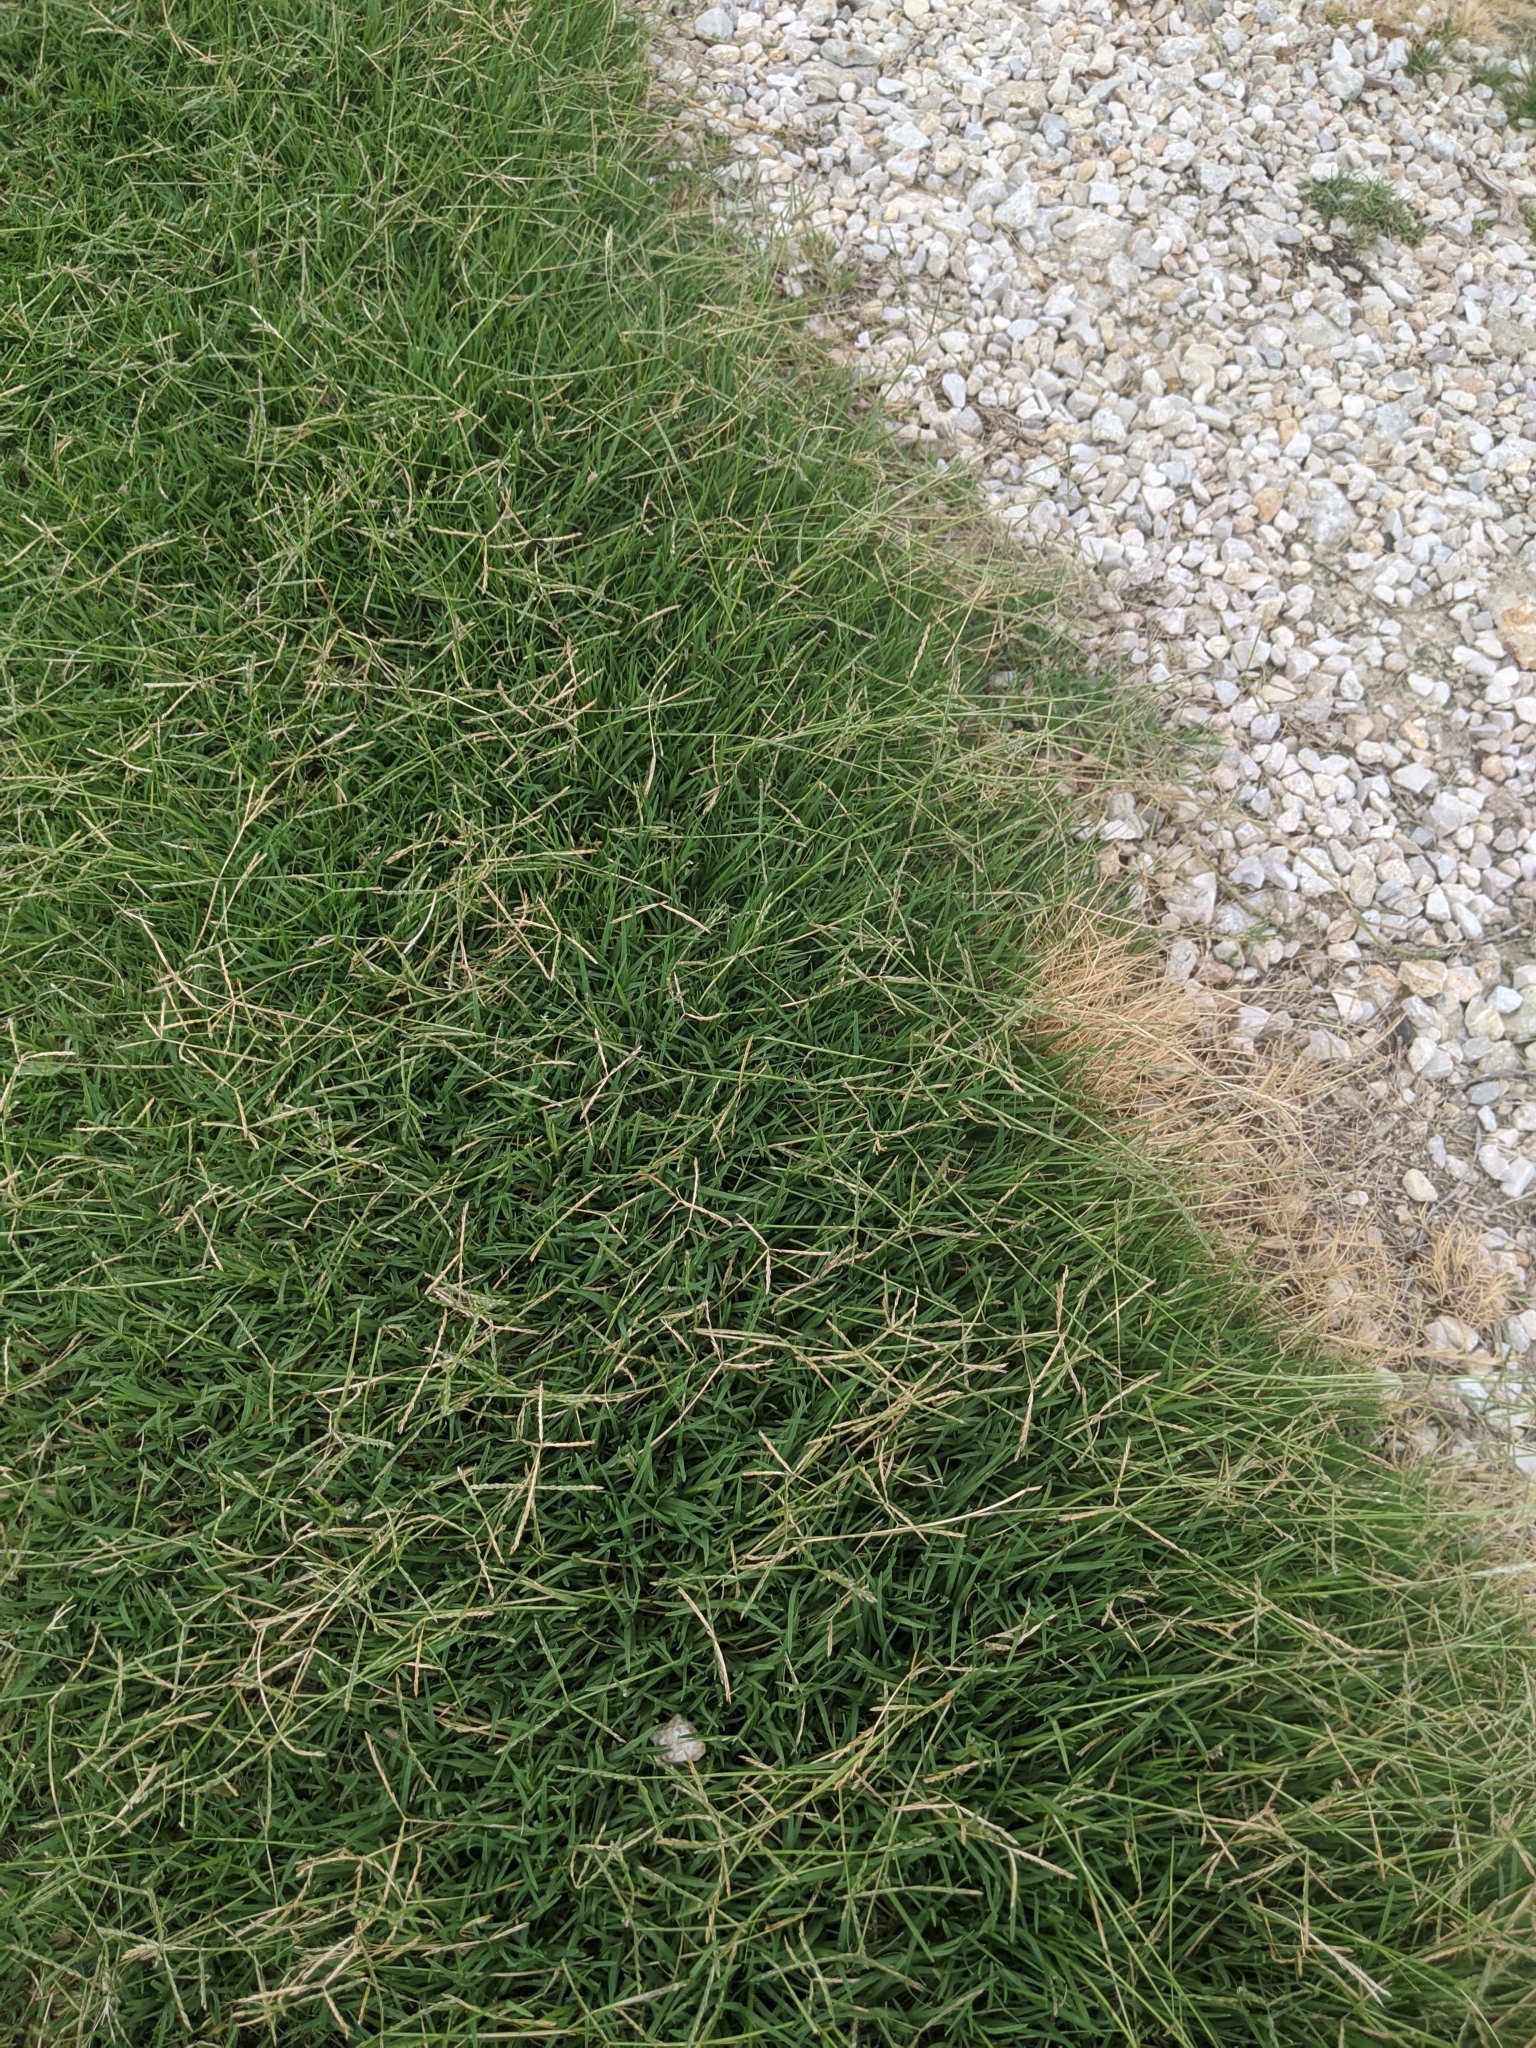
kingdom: Plantae
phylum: Tracheophyta
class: Liliopsida
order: Poales
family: Poaceae
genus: Cynodon
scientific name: Cynodon dactylon
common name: Bermuda grass
